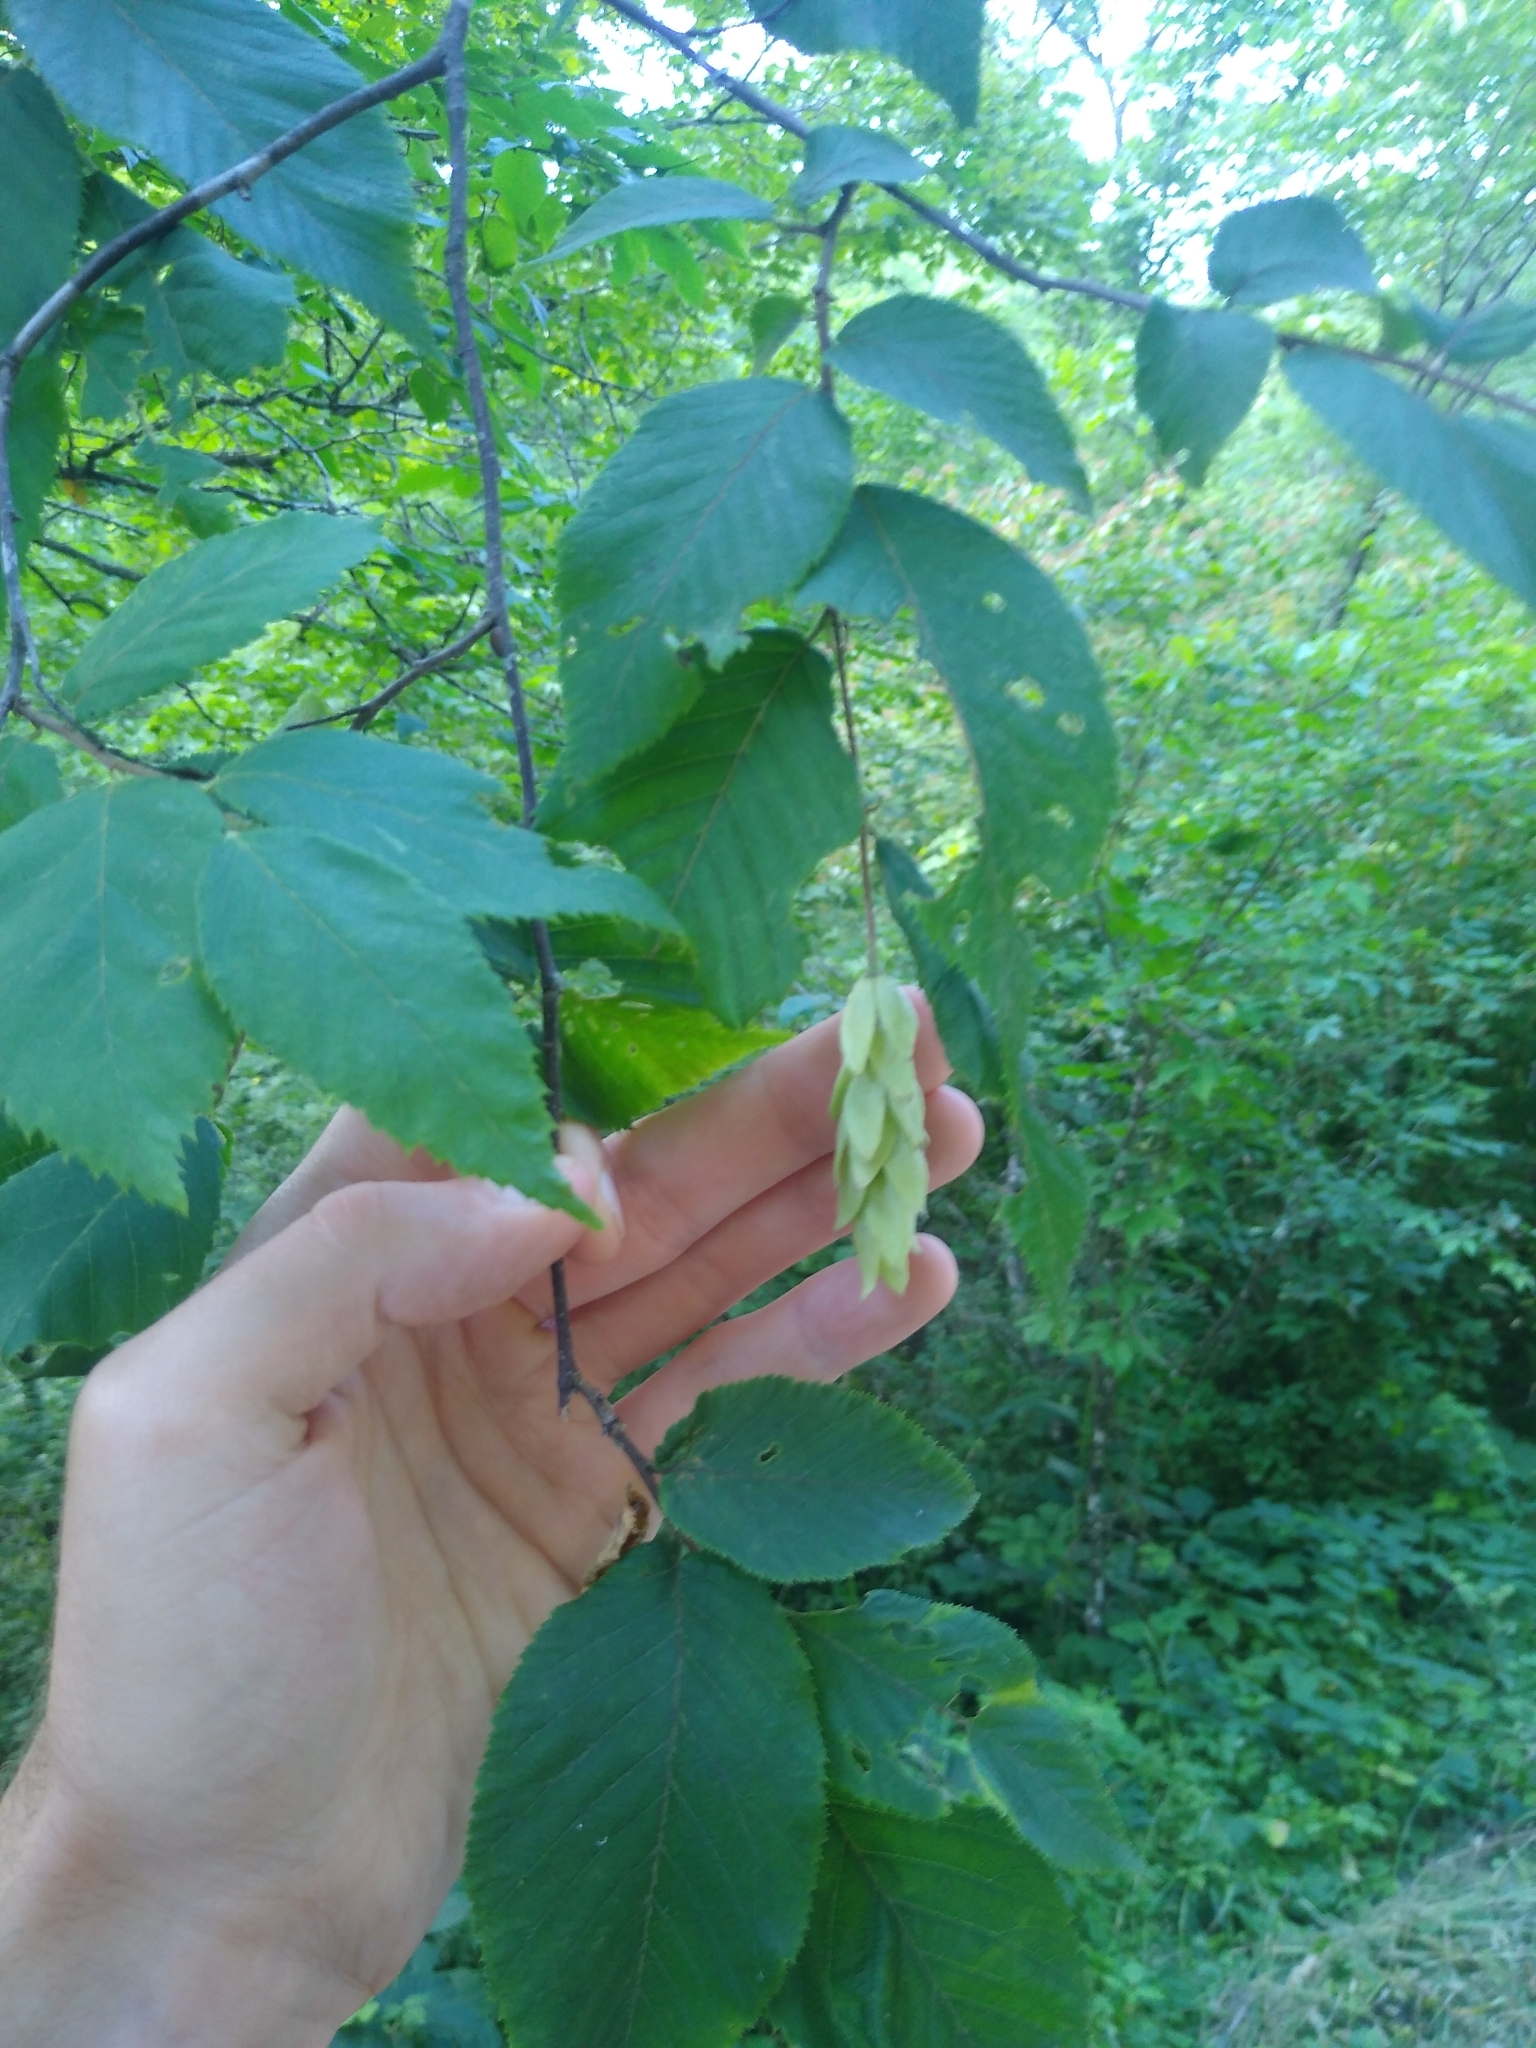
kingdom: Plantae
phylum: Tracheophyta
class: Magnoliopsida
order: Fagales
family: Betulaceae
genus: Ostrya
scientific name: Ostrya virginiana
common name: Ironwood
